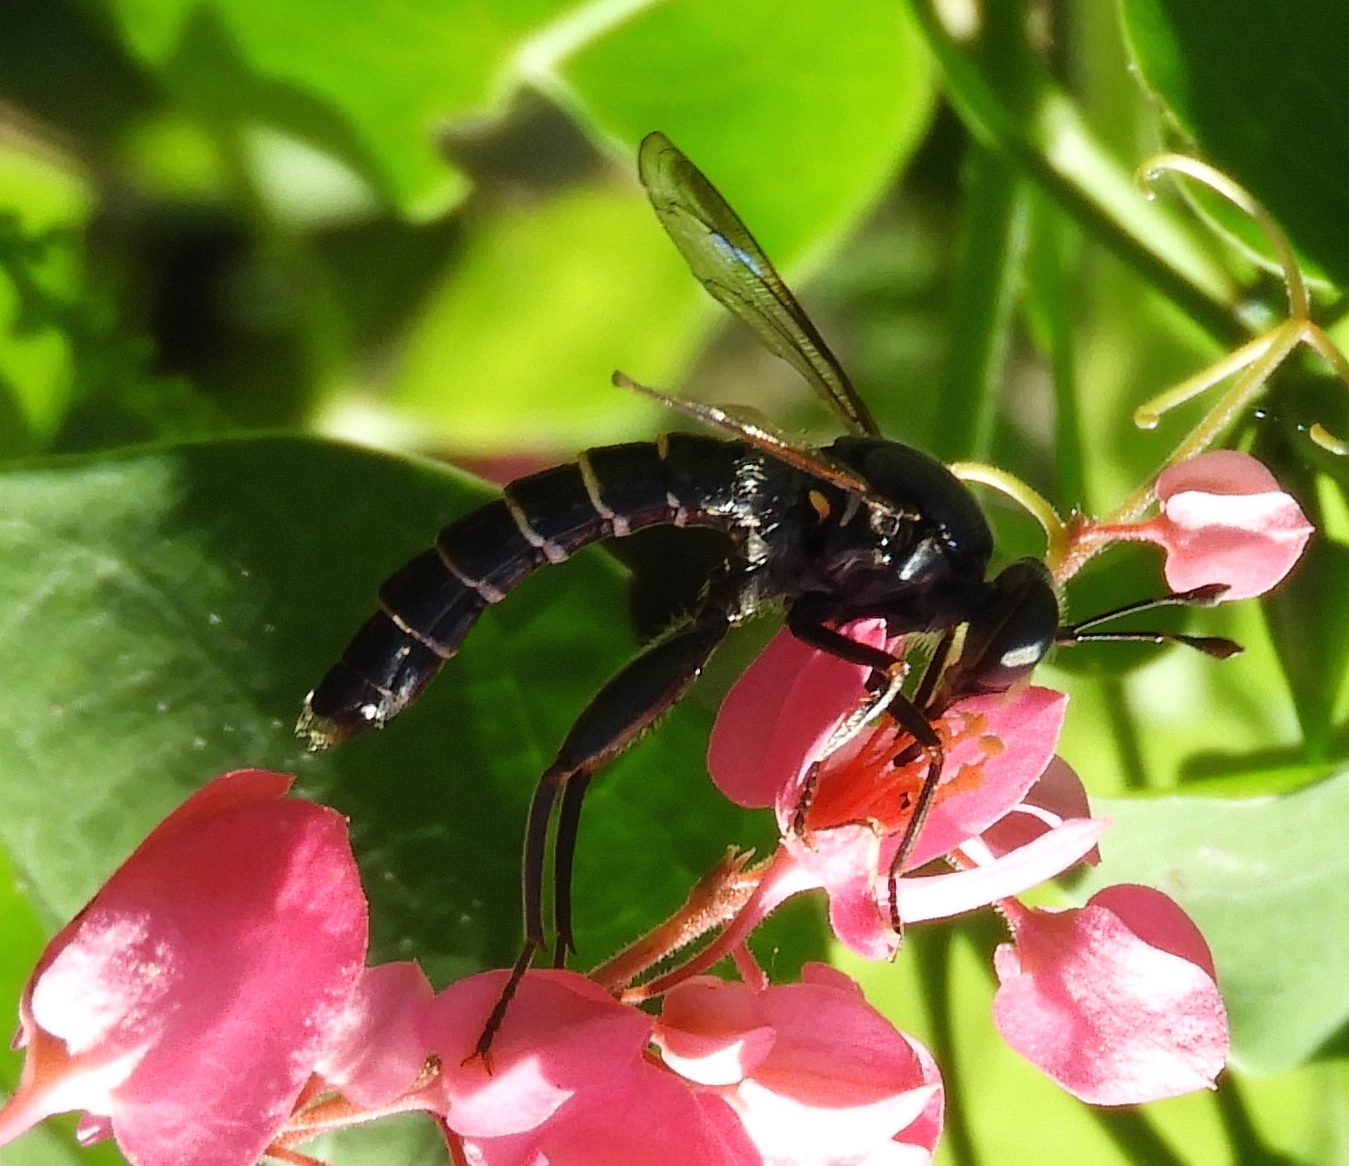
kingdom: Animalia
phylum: Arthropoda
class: Insecta
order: Diptera
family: Mydidae
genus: Mydas
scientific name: Mydas
